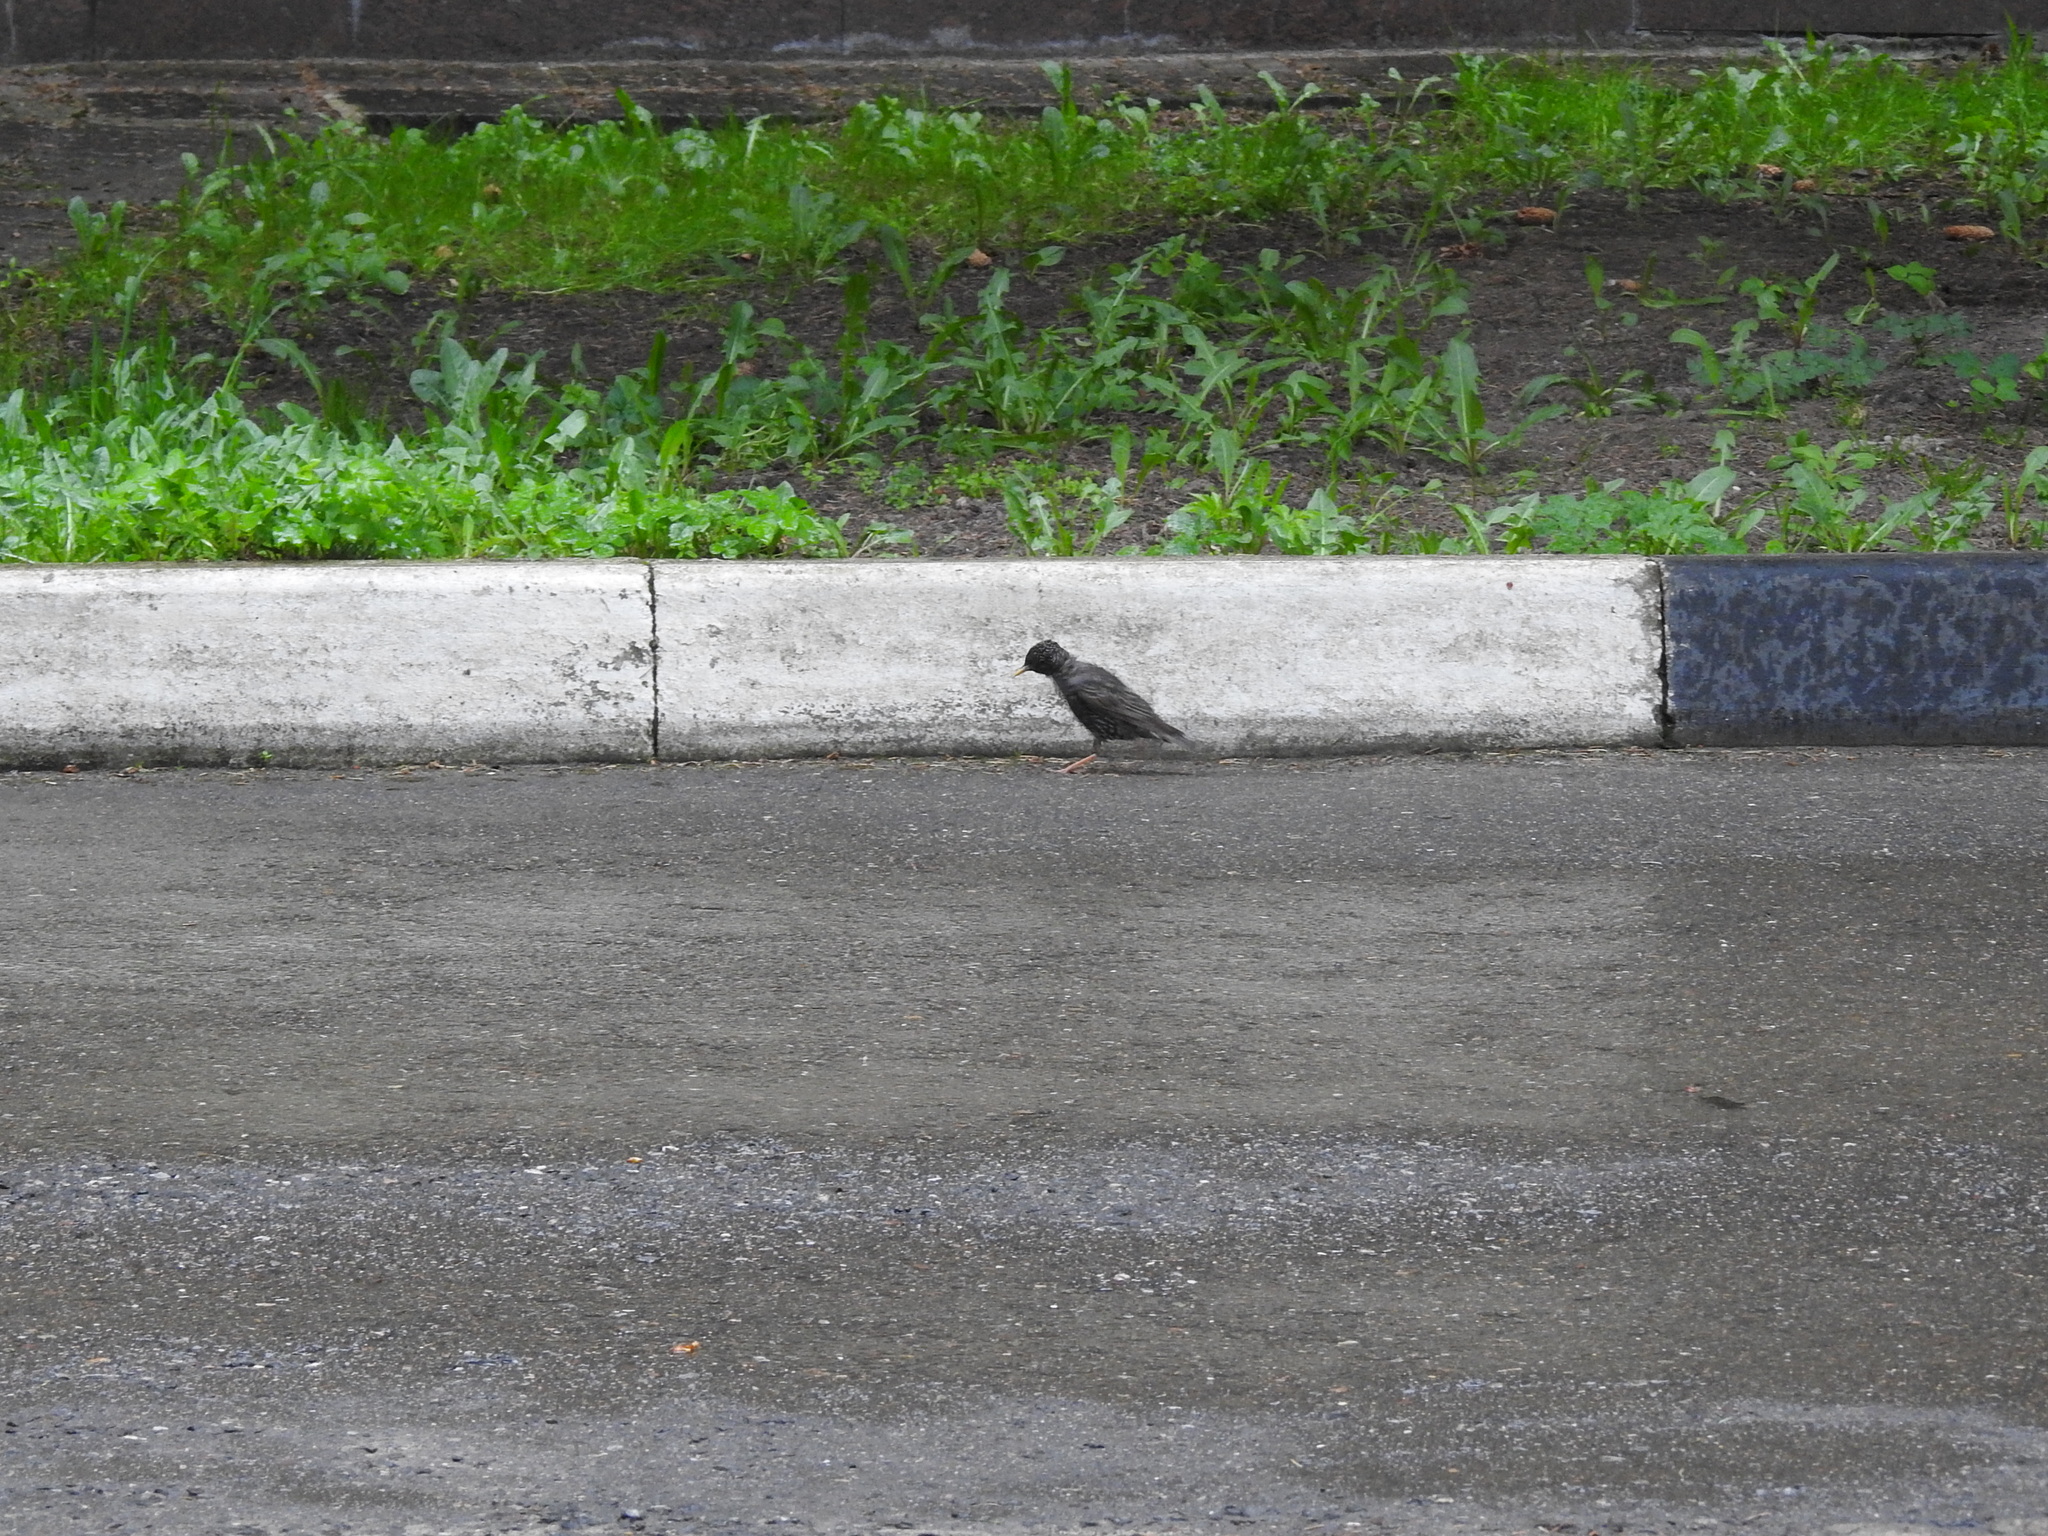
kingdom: Animalia
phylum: Chordata
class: Aves
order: Passeriformes
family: Sturnidae
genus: Sturnus
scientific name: Sturnus vulgaris
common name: Common starling
